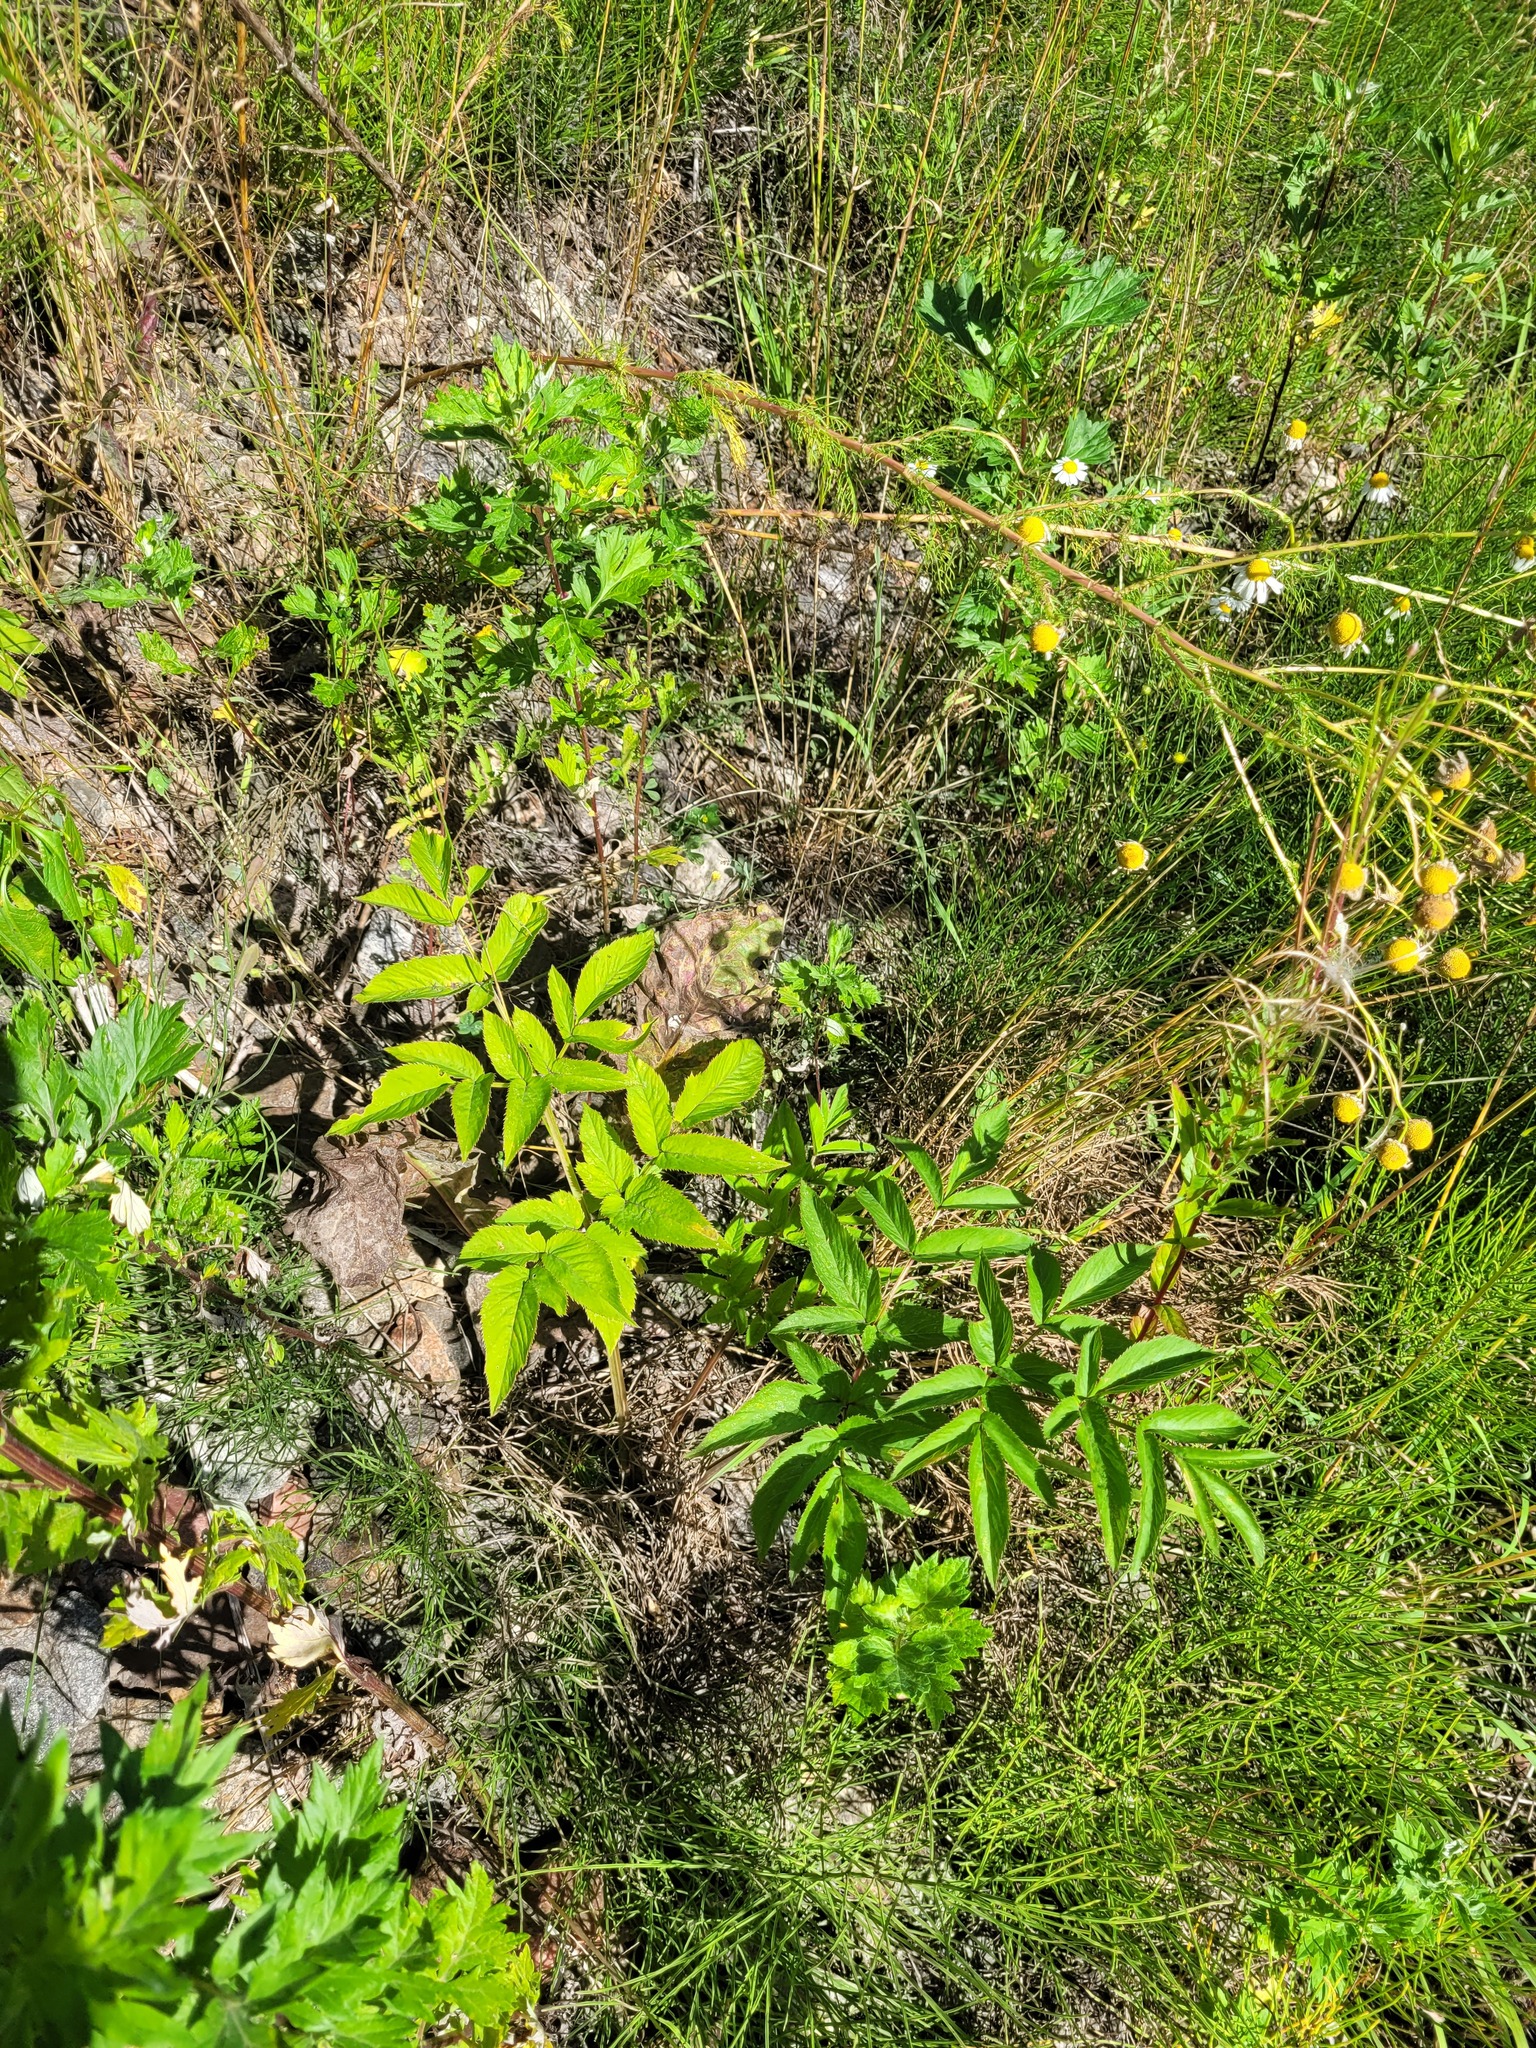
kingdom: Plantae
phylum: Tracheophyta
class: Magnoliopsida
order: Apiales
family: Apiaceae
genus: Angelica
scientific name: Angelica sylvestris
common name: Wild angelica
